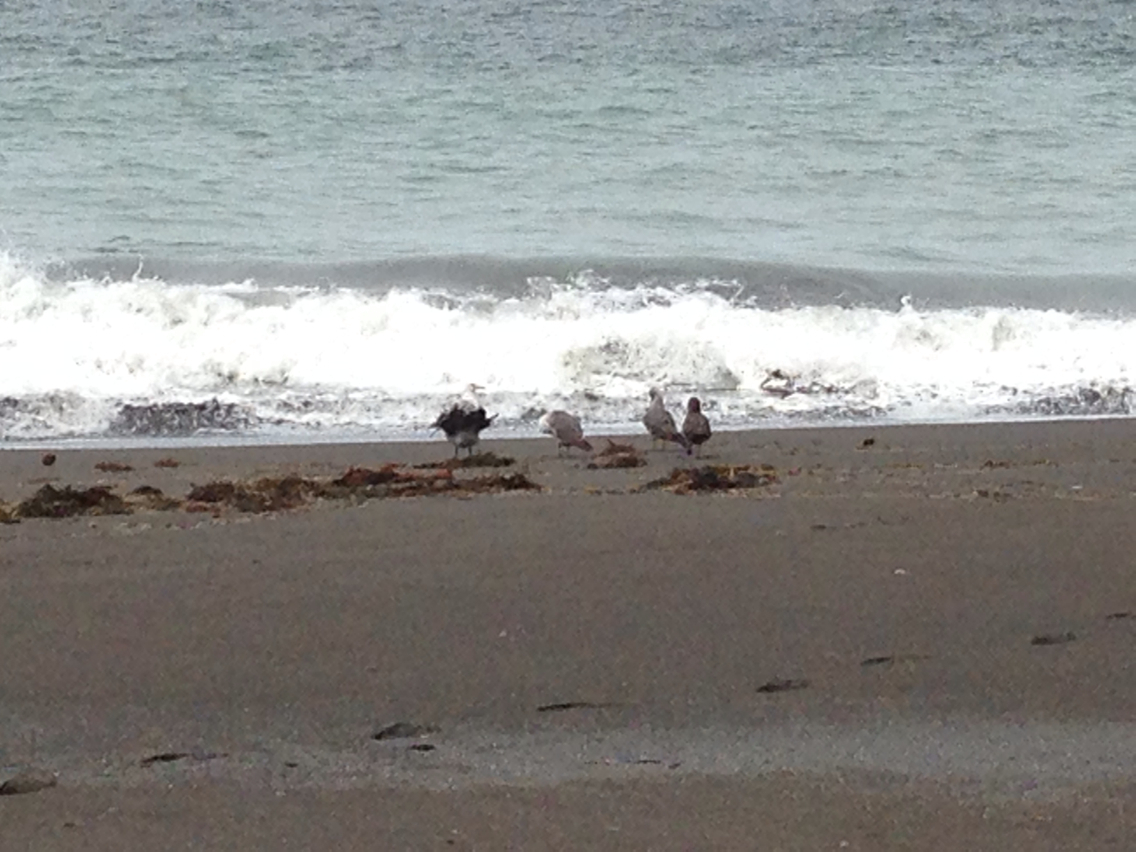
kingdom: Animalia
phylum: Chordata
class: Aves
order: Charadriiformes
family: Laridae
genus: Larus
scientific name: Larus heermanni
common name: Heermann's gull
